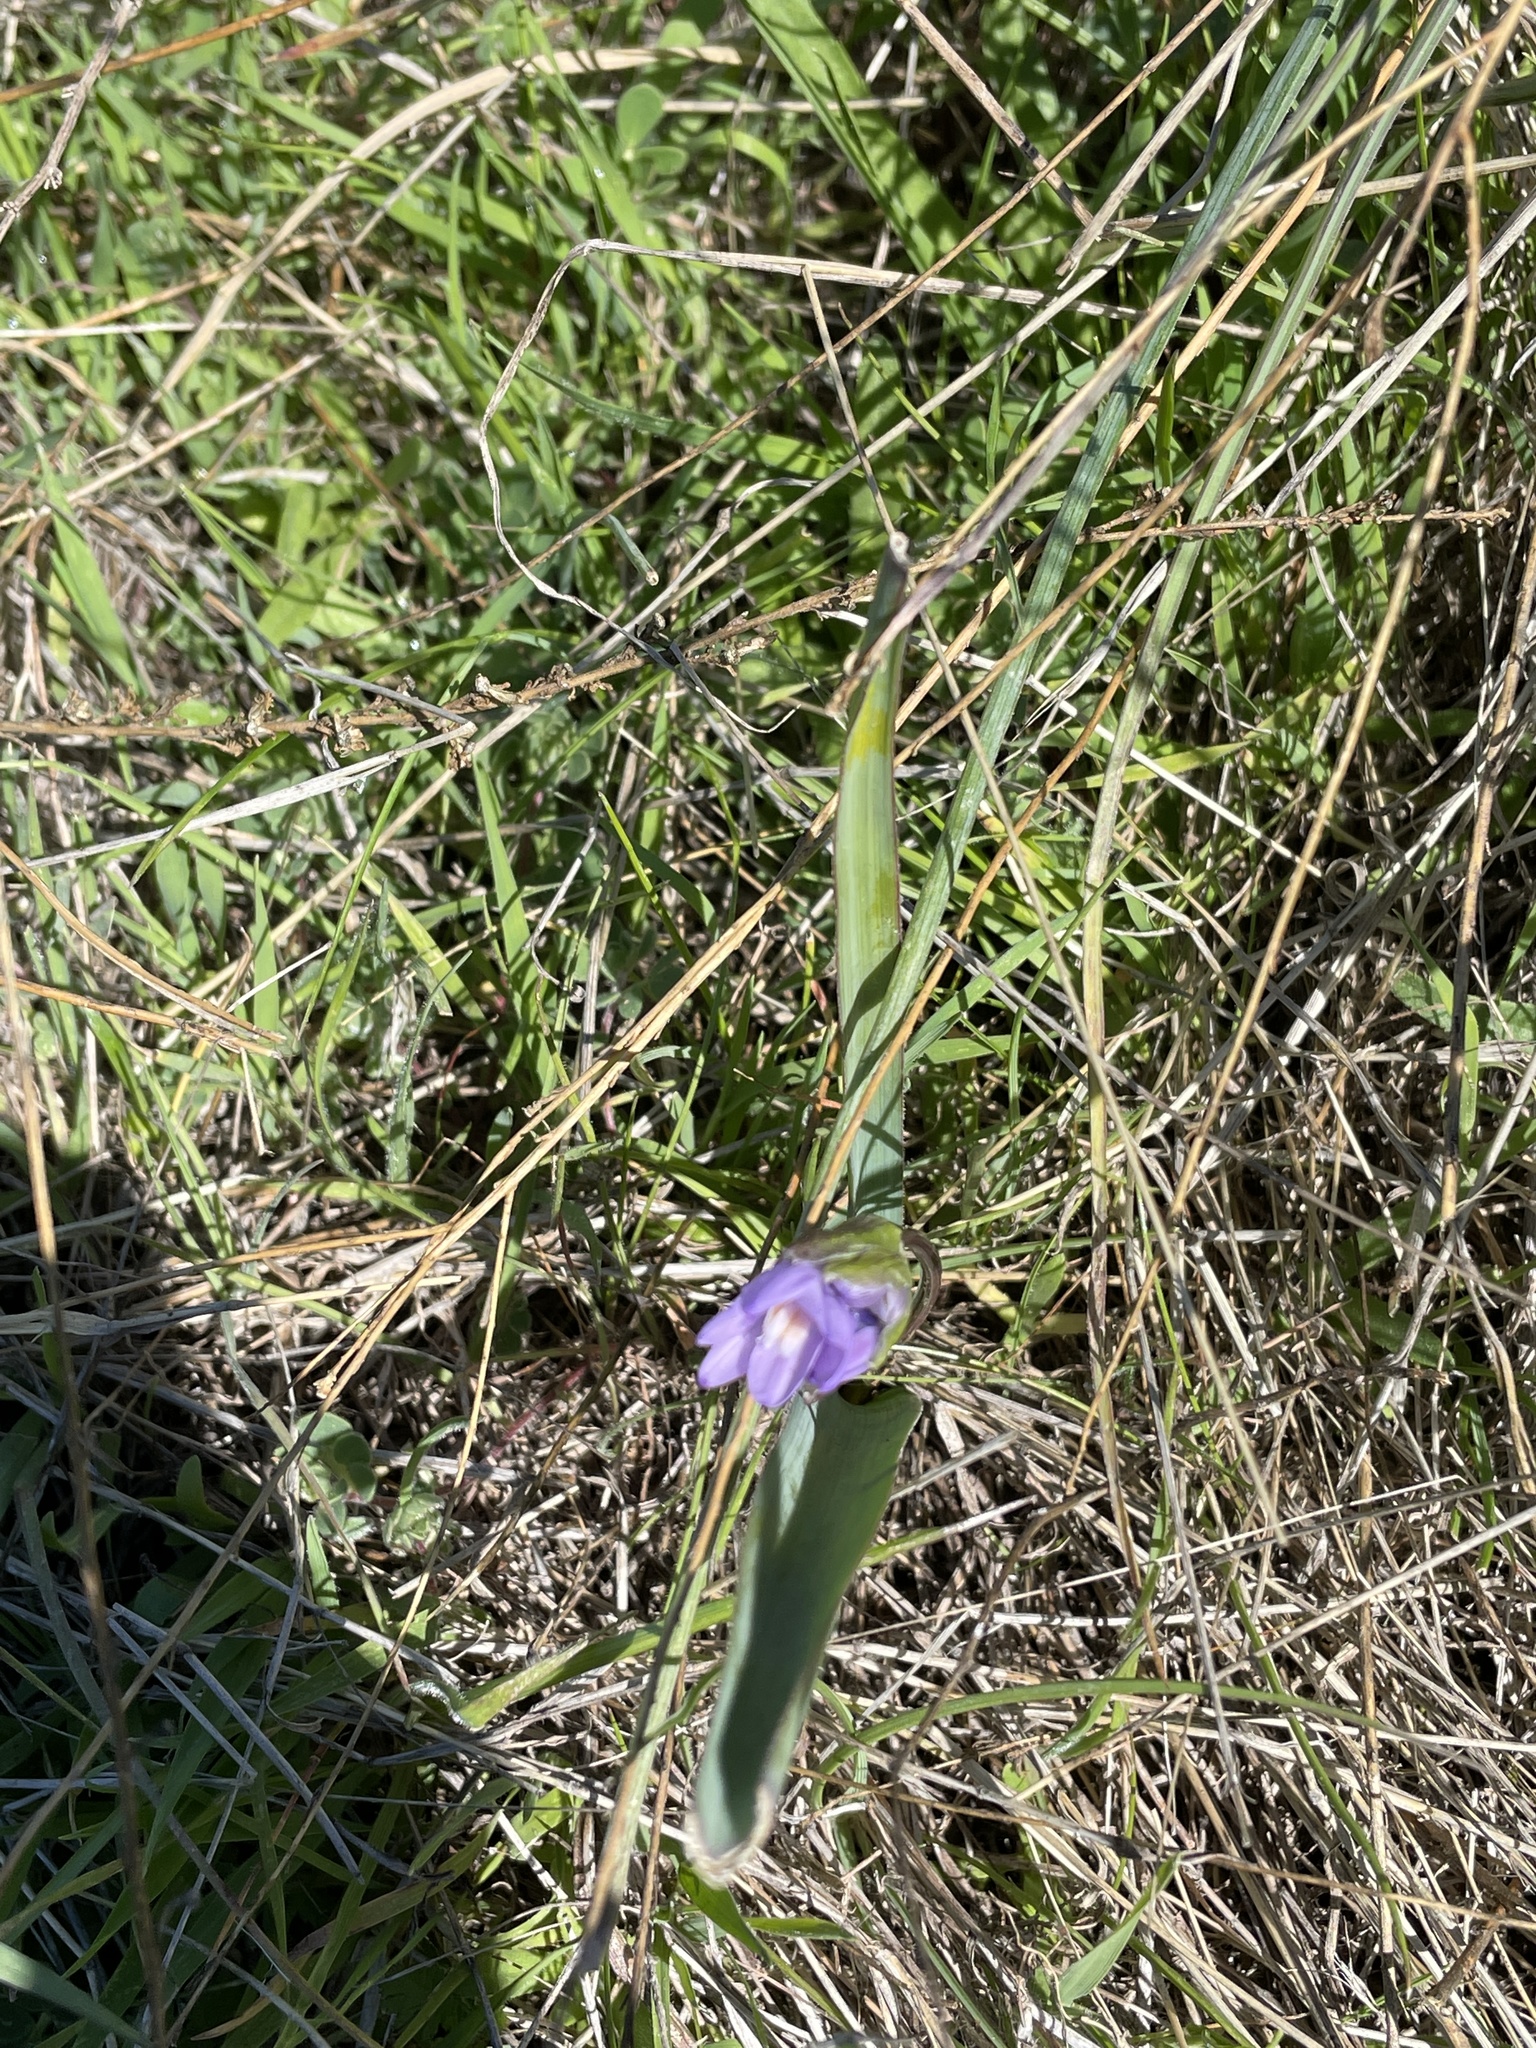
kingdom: Plantae
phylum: Tracheophyta
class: Liliopsida
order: Asparagales
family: Asparagaceae
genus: Dipterostemon
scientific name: Dipterostemon capitatus
